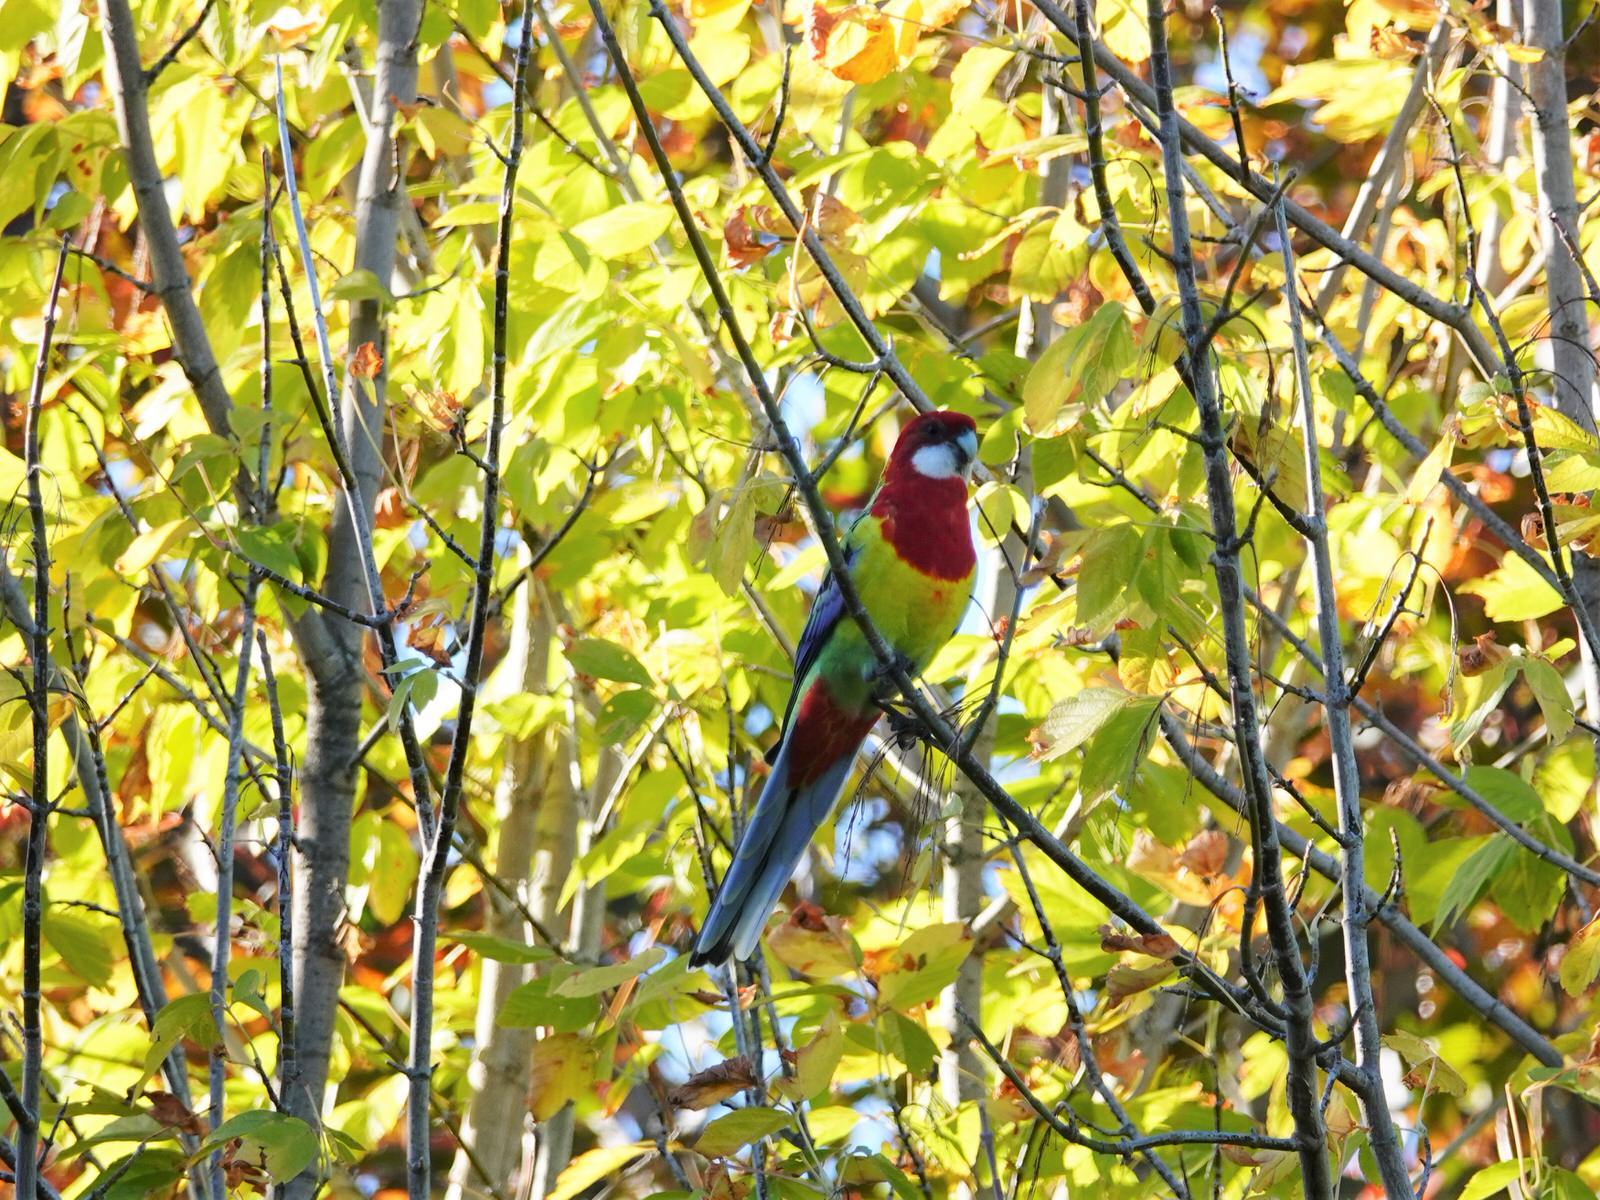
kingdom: Animalia
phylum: Chordata
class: Aves
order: Psittaciformes
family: Psittacidae
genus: Platycercus
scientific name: Platycercus eximius
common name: Eastern rosella
